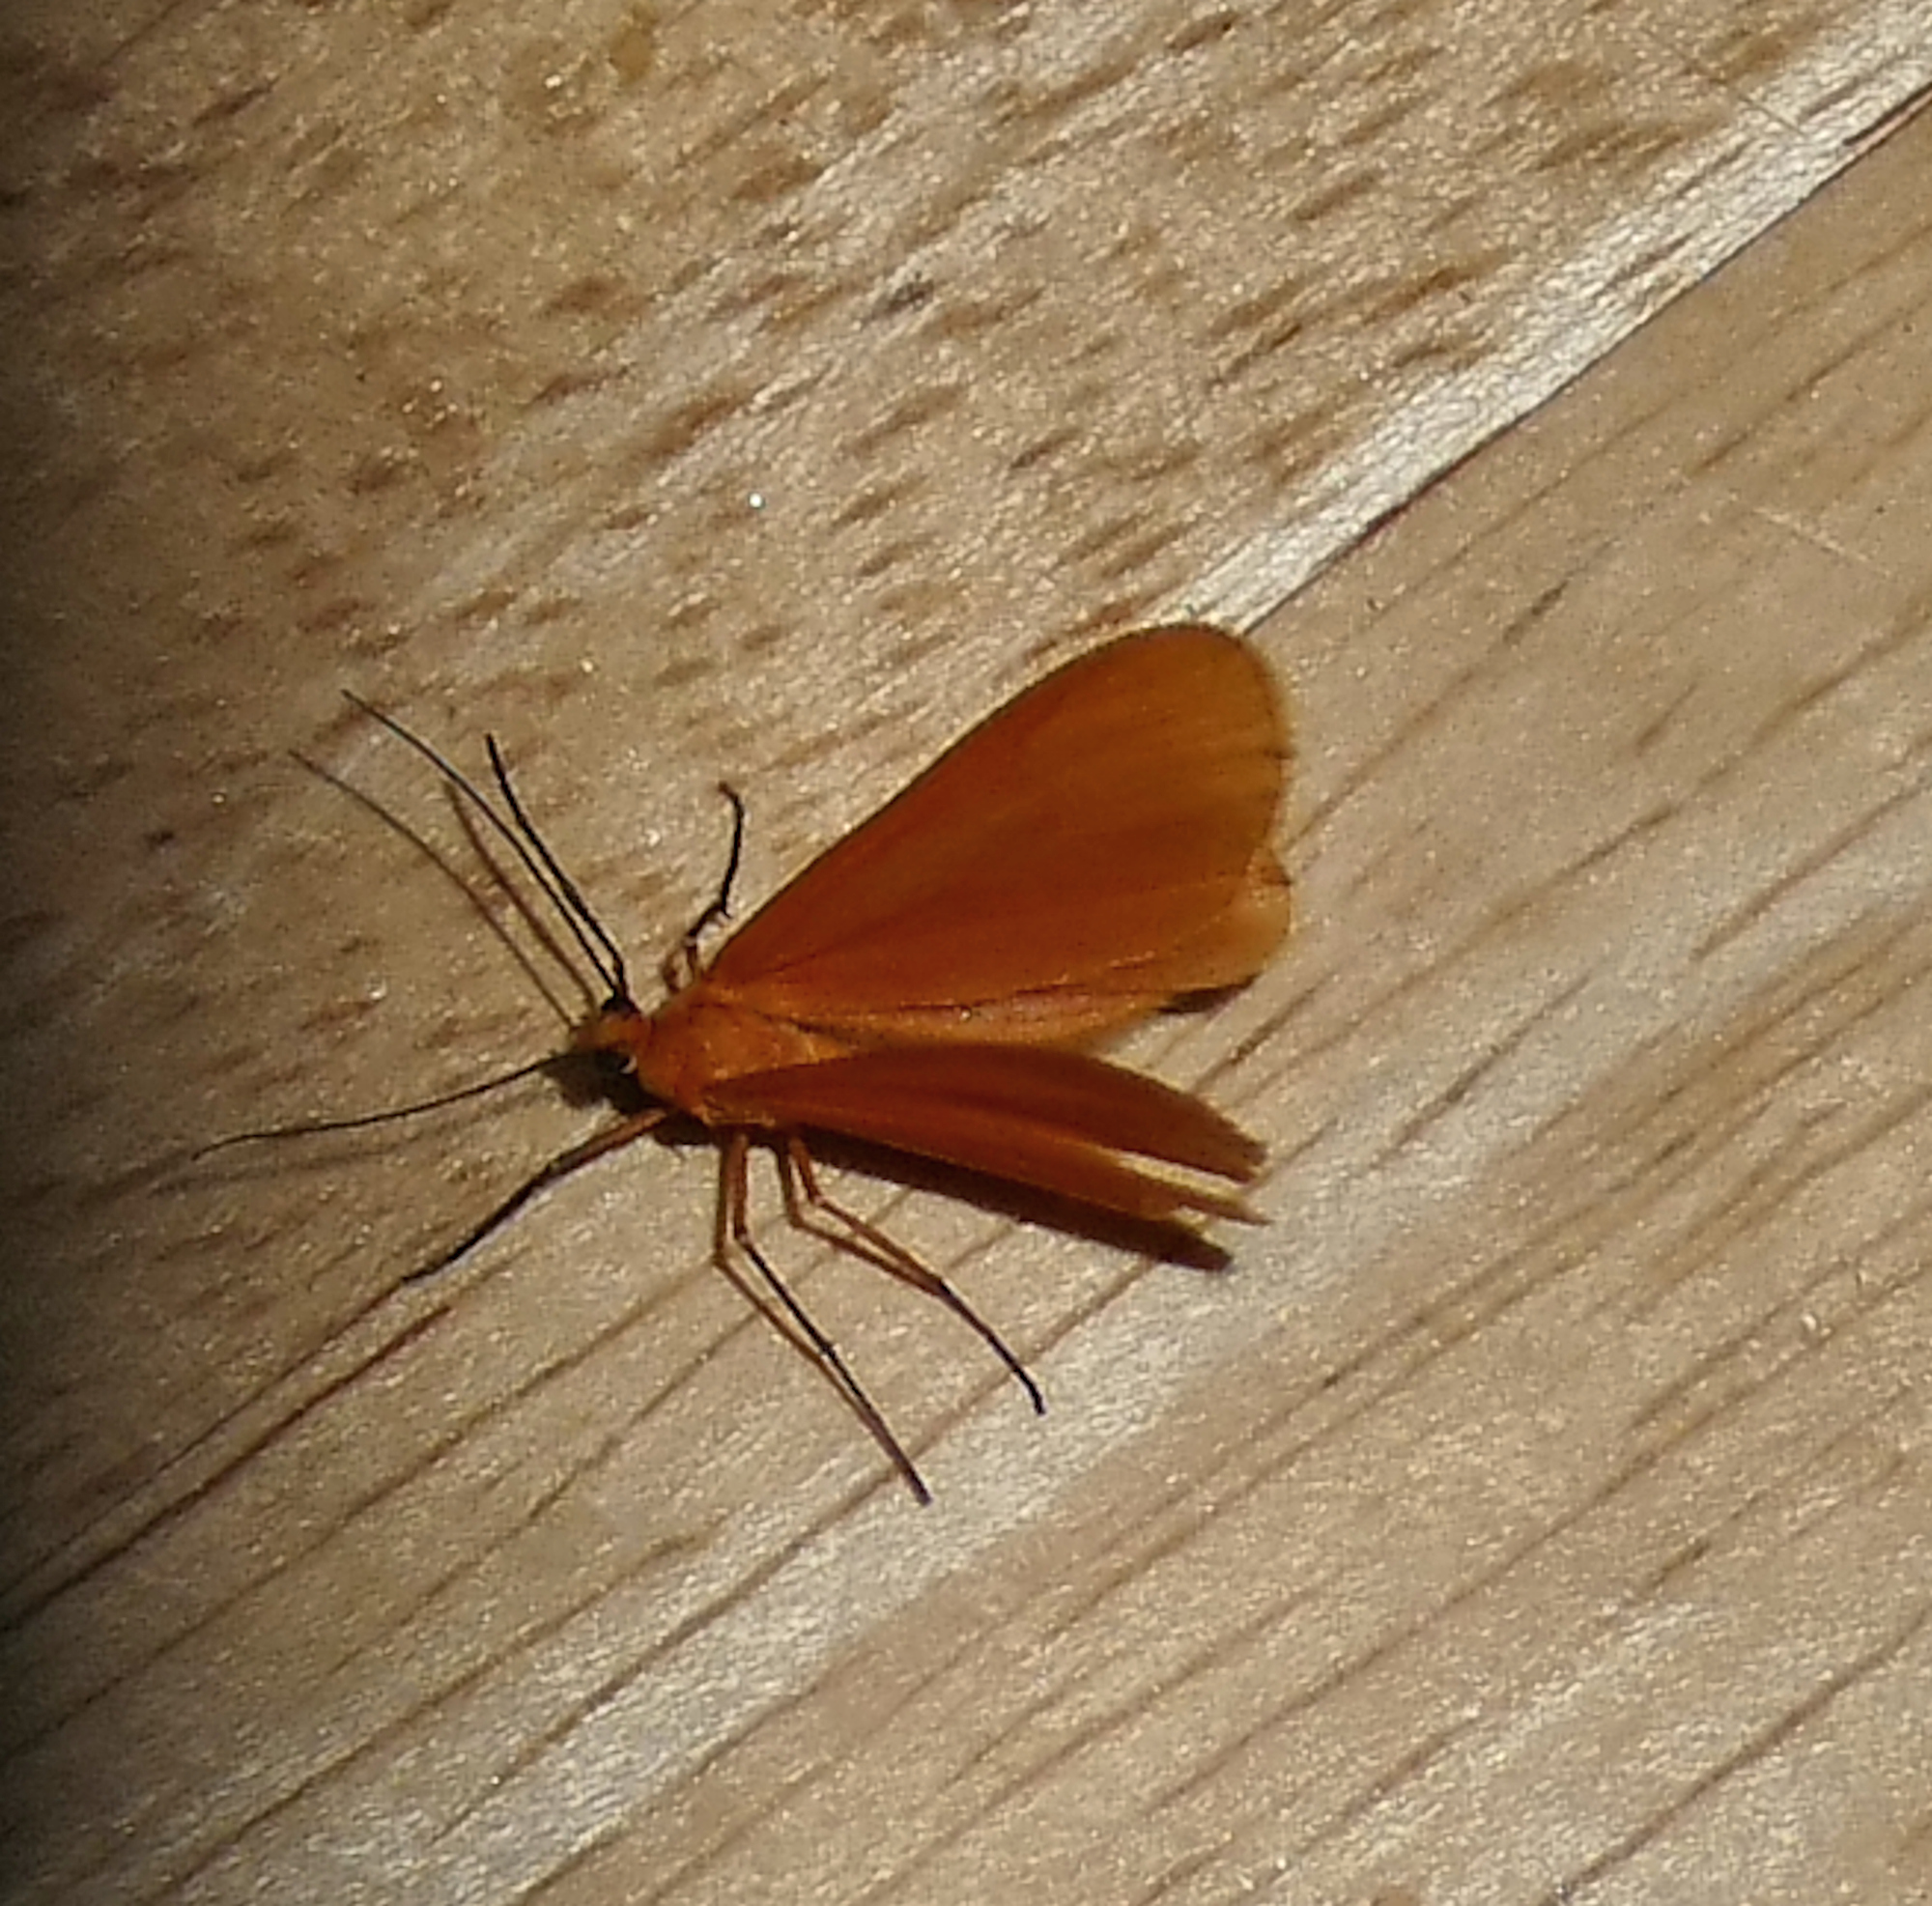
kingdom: Animalia
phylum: Arthropoda
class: Insecta
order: Lepidoptera
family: Geometridae
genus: Eubaphe
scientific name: Eubaphe unicolor
